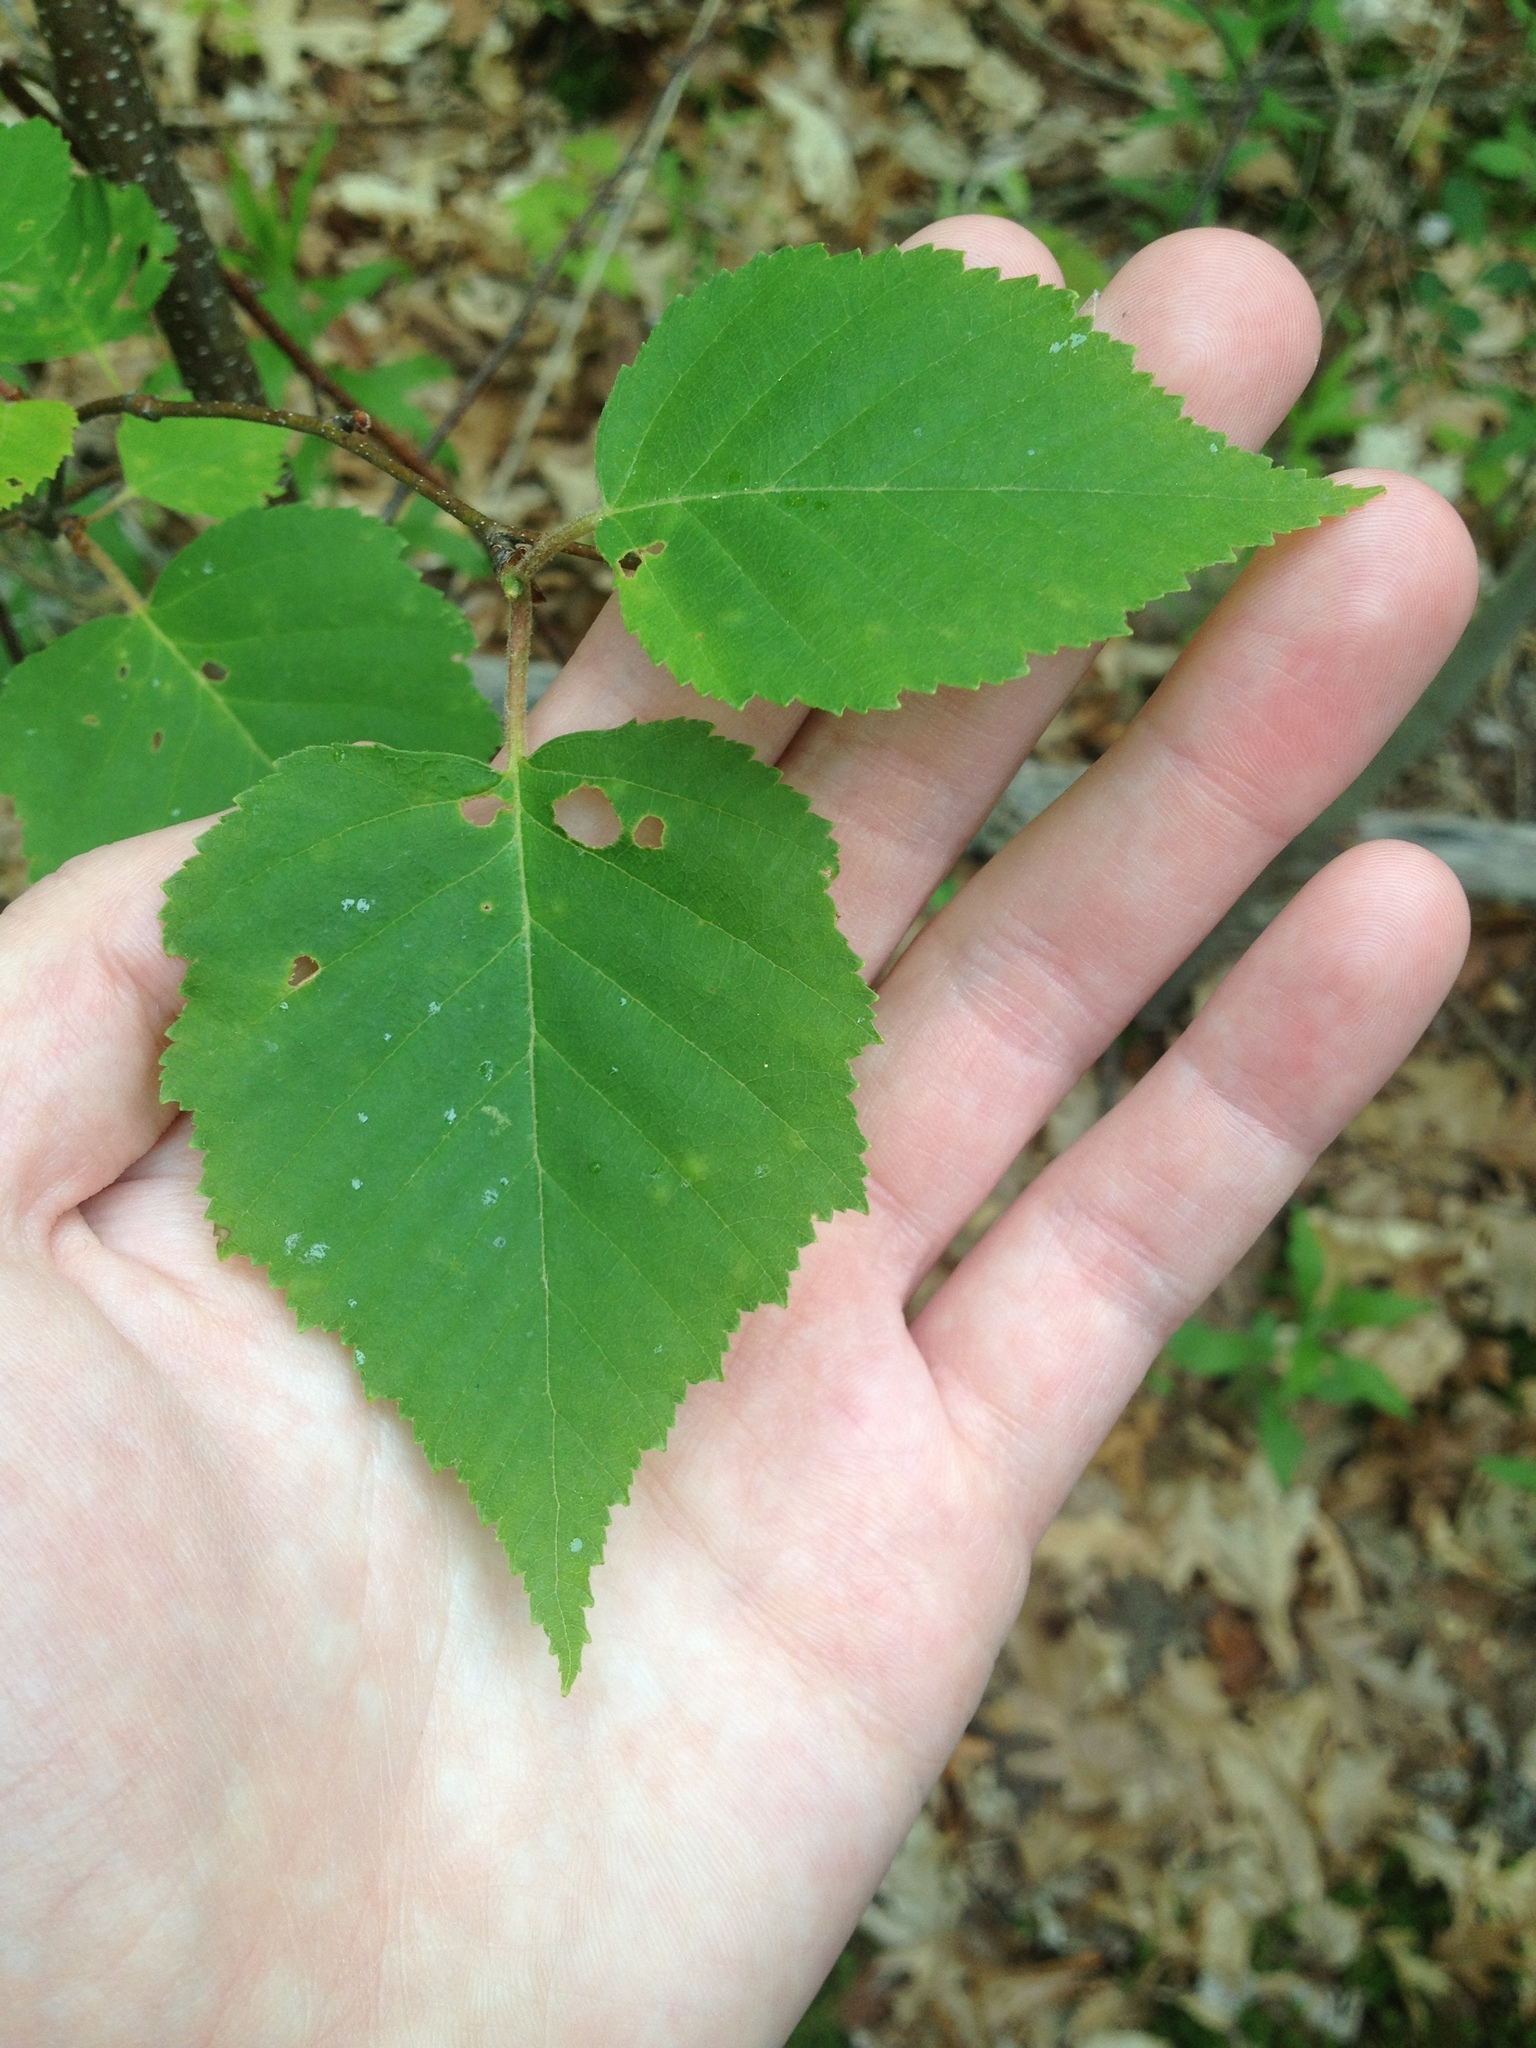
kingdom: Plantae
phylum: Tracheophyta
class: Magnoliopsida
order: Fagales
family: Betulaceae
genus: Betula
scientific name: Betula papyrifera
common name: Paper birch
